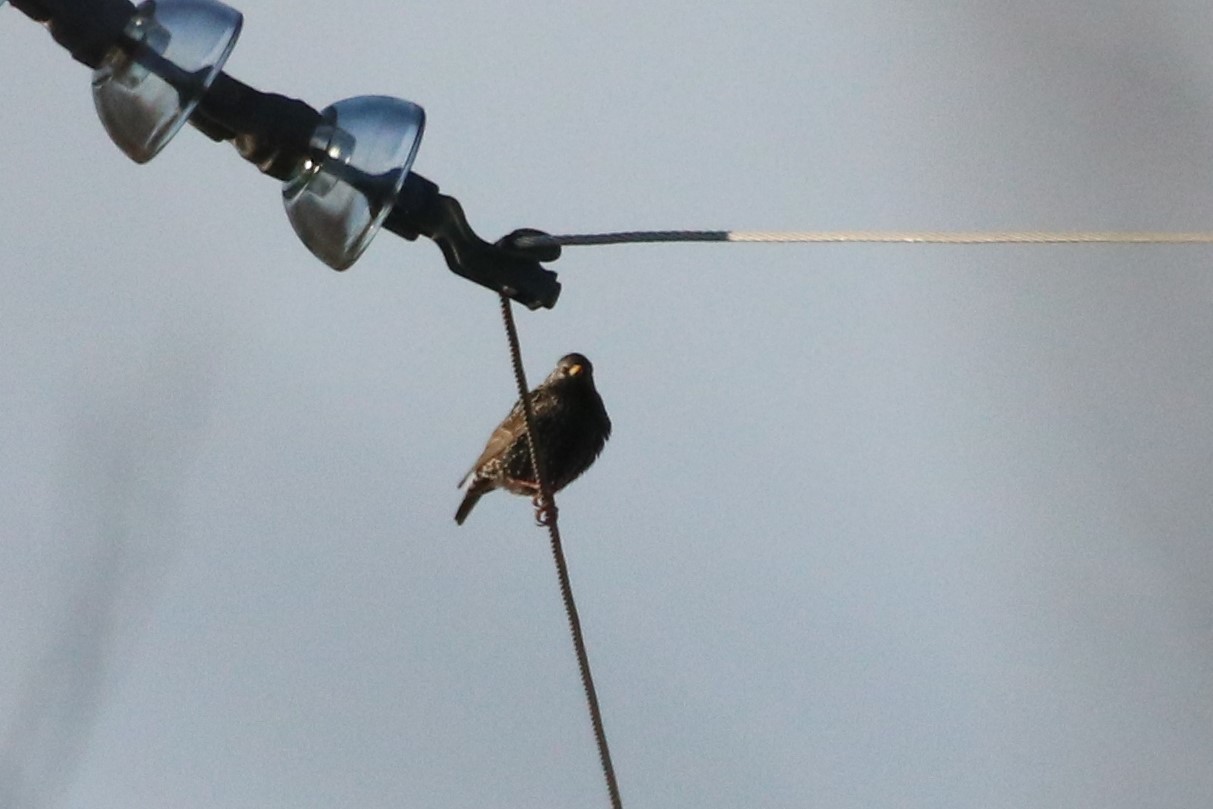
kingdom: Animalia
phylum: Chordata
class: Aves
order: Passeriformes
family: Sturnidae
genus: Sturnus
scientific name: Sturnus vulgaris
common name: Common starling
